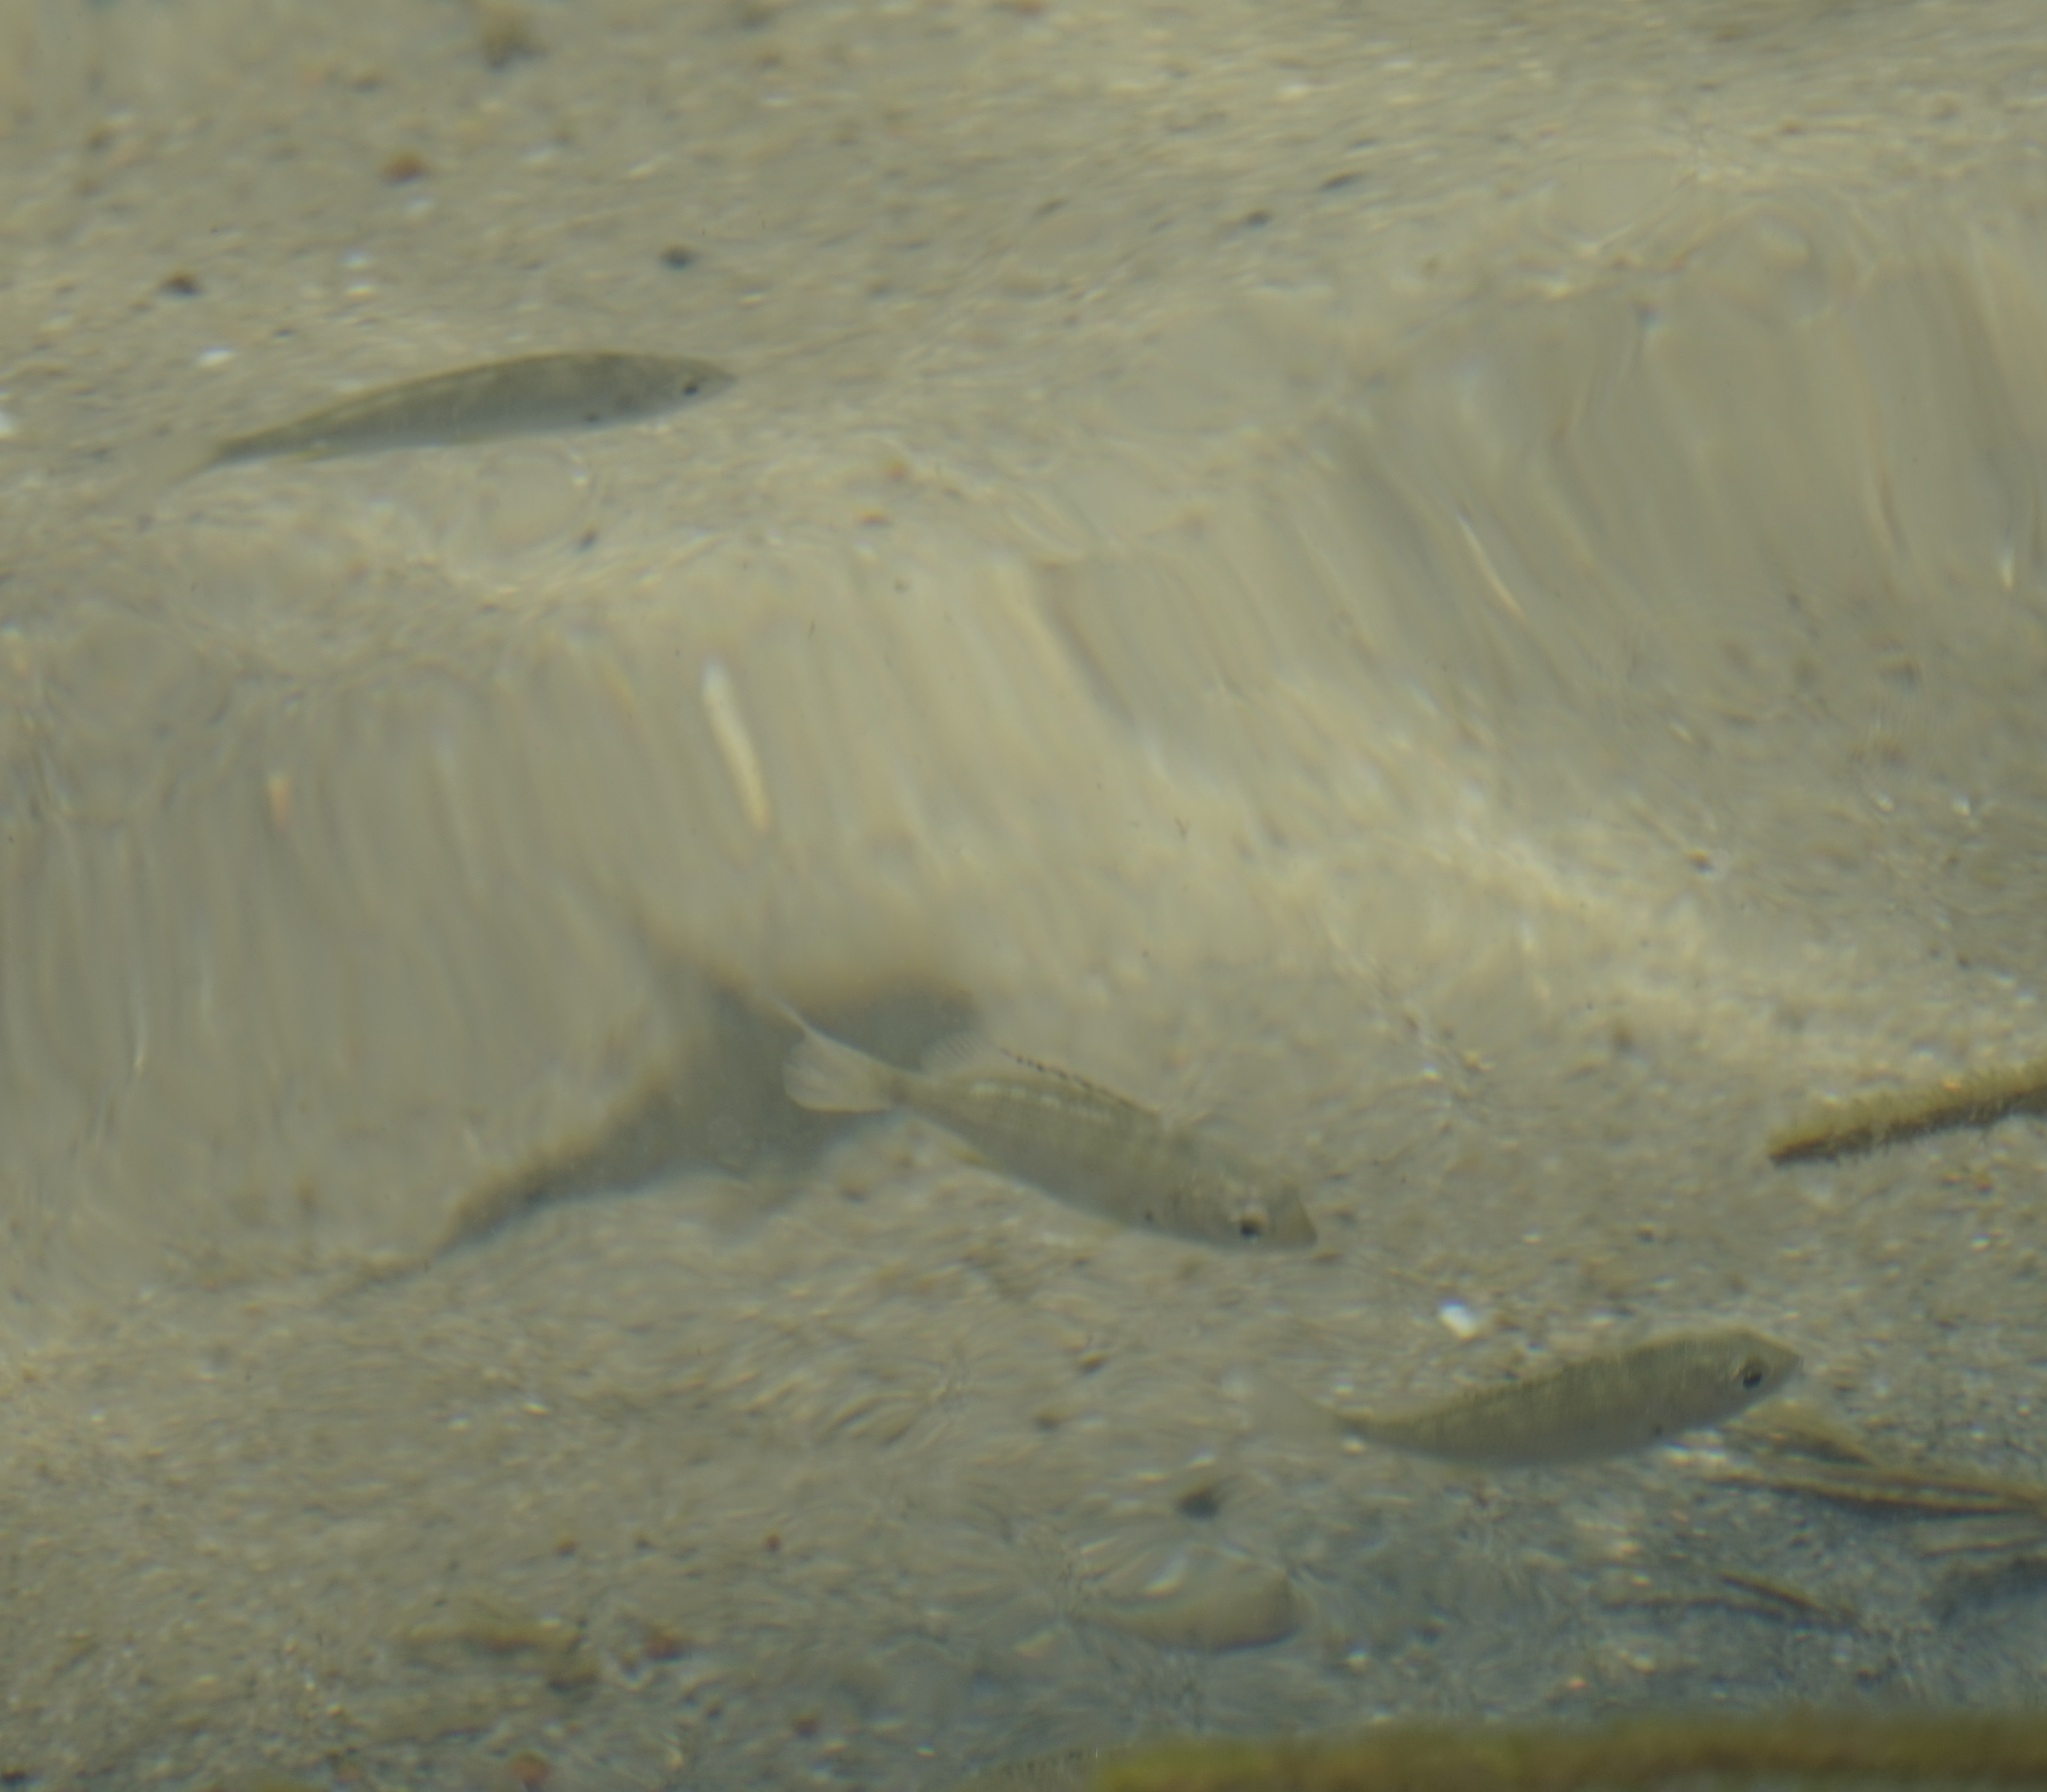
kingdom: Animalia
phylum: Chordata
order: Perciformes
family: Sparidae
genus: Acanthopagrus
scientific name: Acanthopagrus australis
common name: Surf bream
